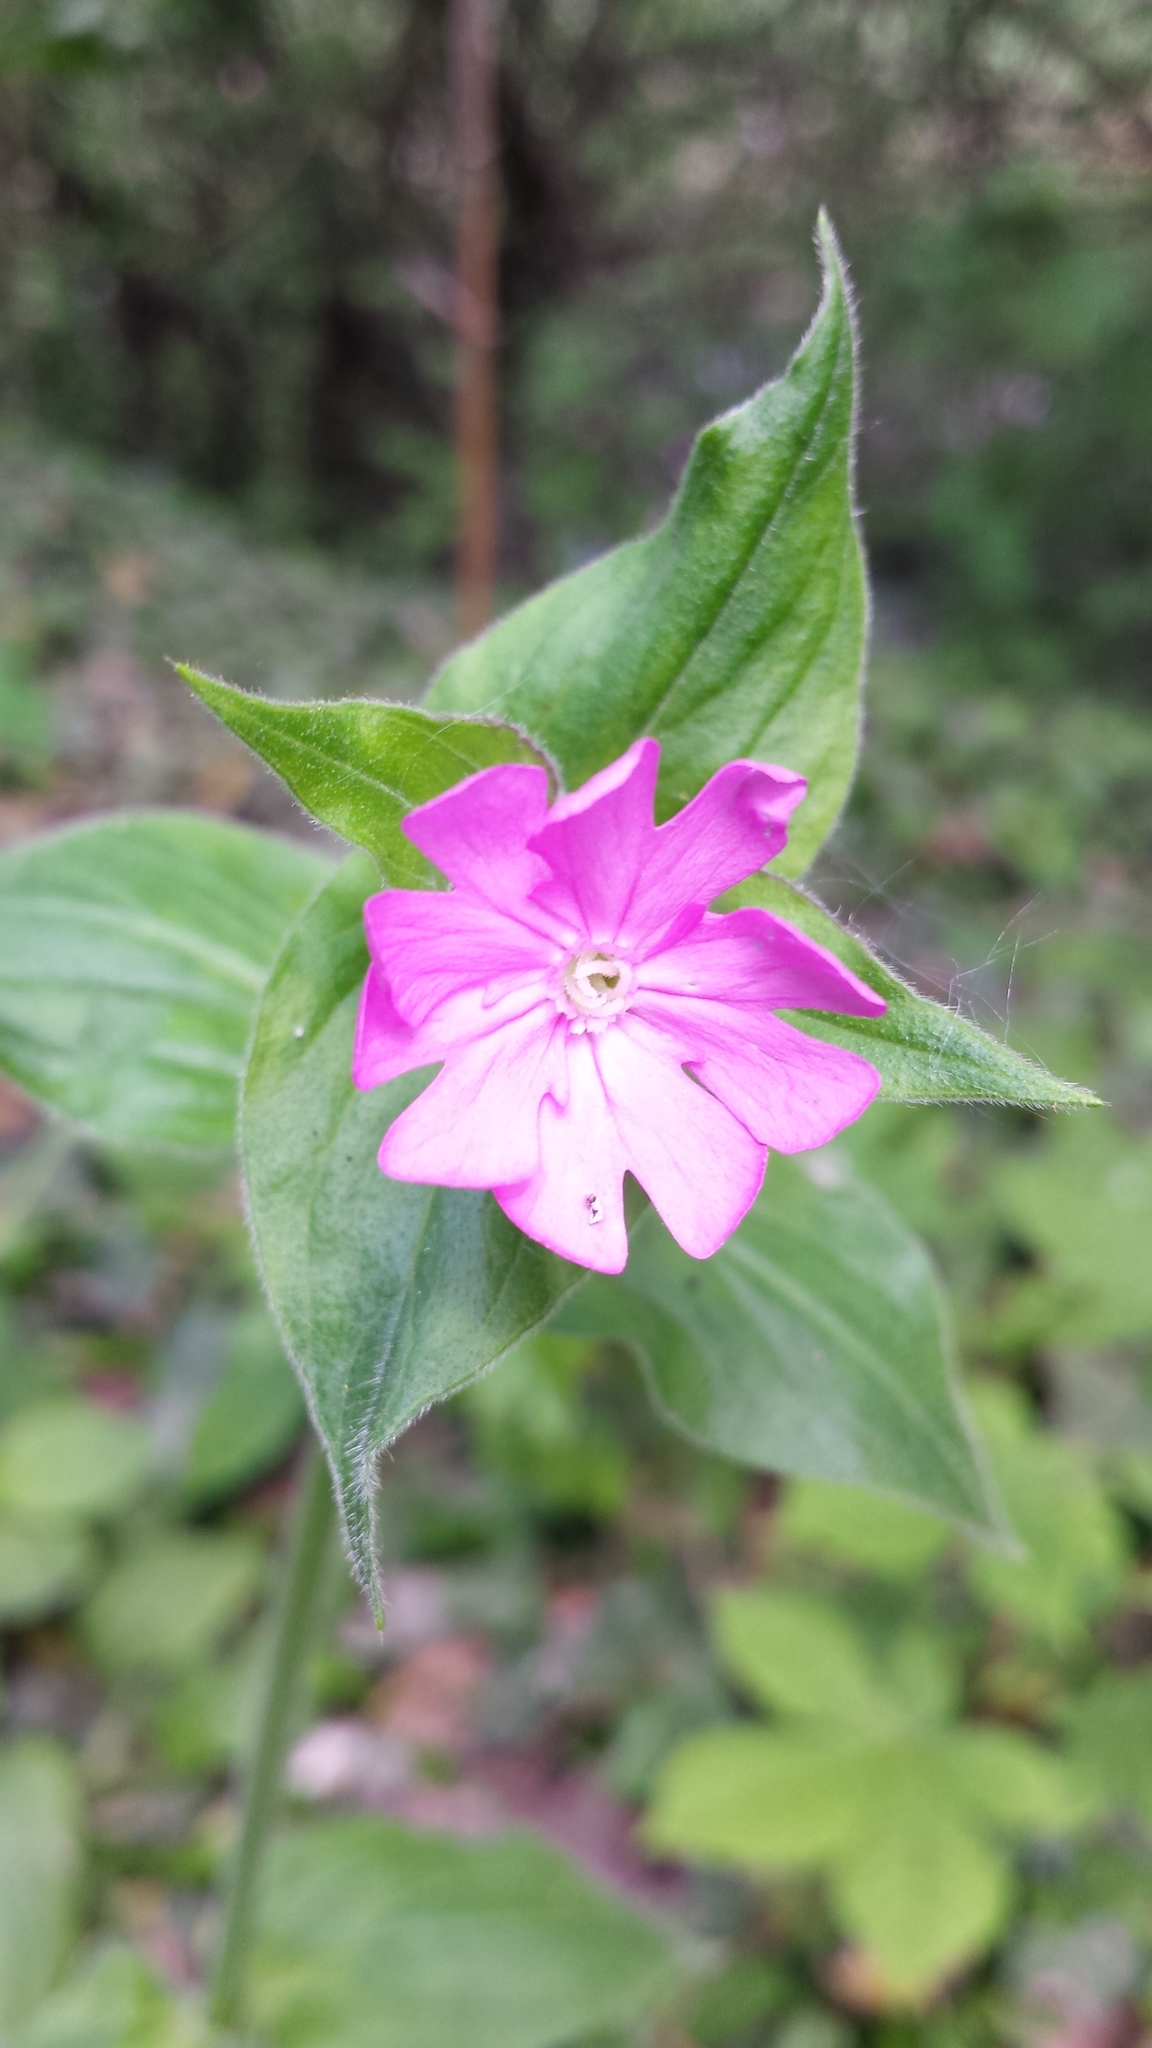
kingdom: Plantae
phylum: Tracheophyta
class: Magnoliopsida
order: Caryophyllales
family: Caryophyllaceae
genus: Silene
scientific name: Silene dioica
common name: Red campion
